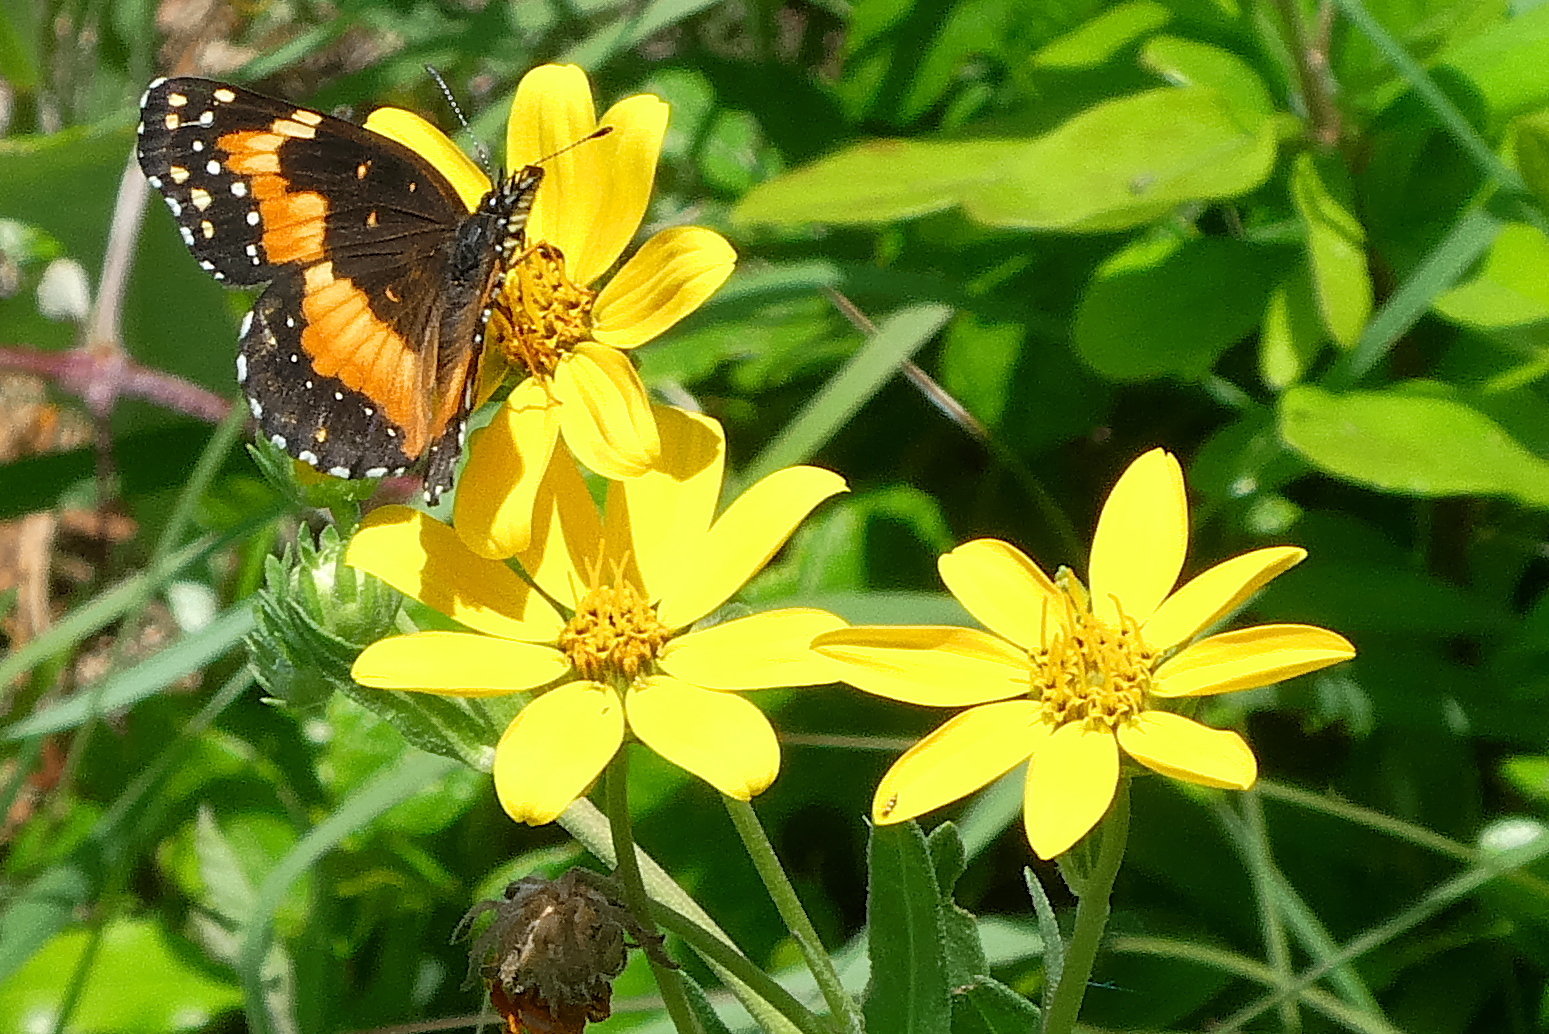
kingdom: Animalia
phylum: Arthropoda
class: Insecta
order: Lepidoptera
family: Nymphalidae
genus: Chlosyne
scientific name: Chlosyne lacinia
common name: Bordered patch
